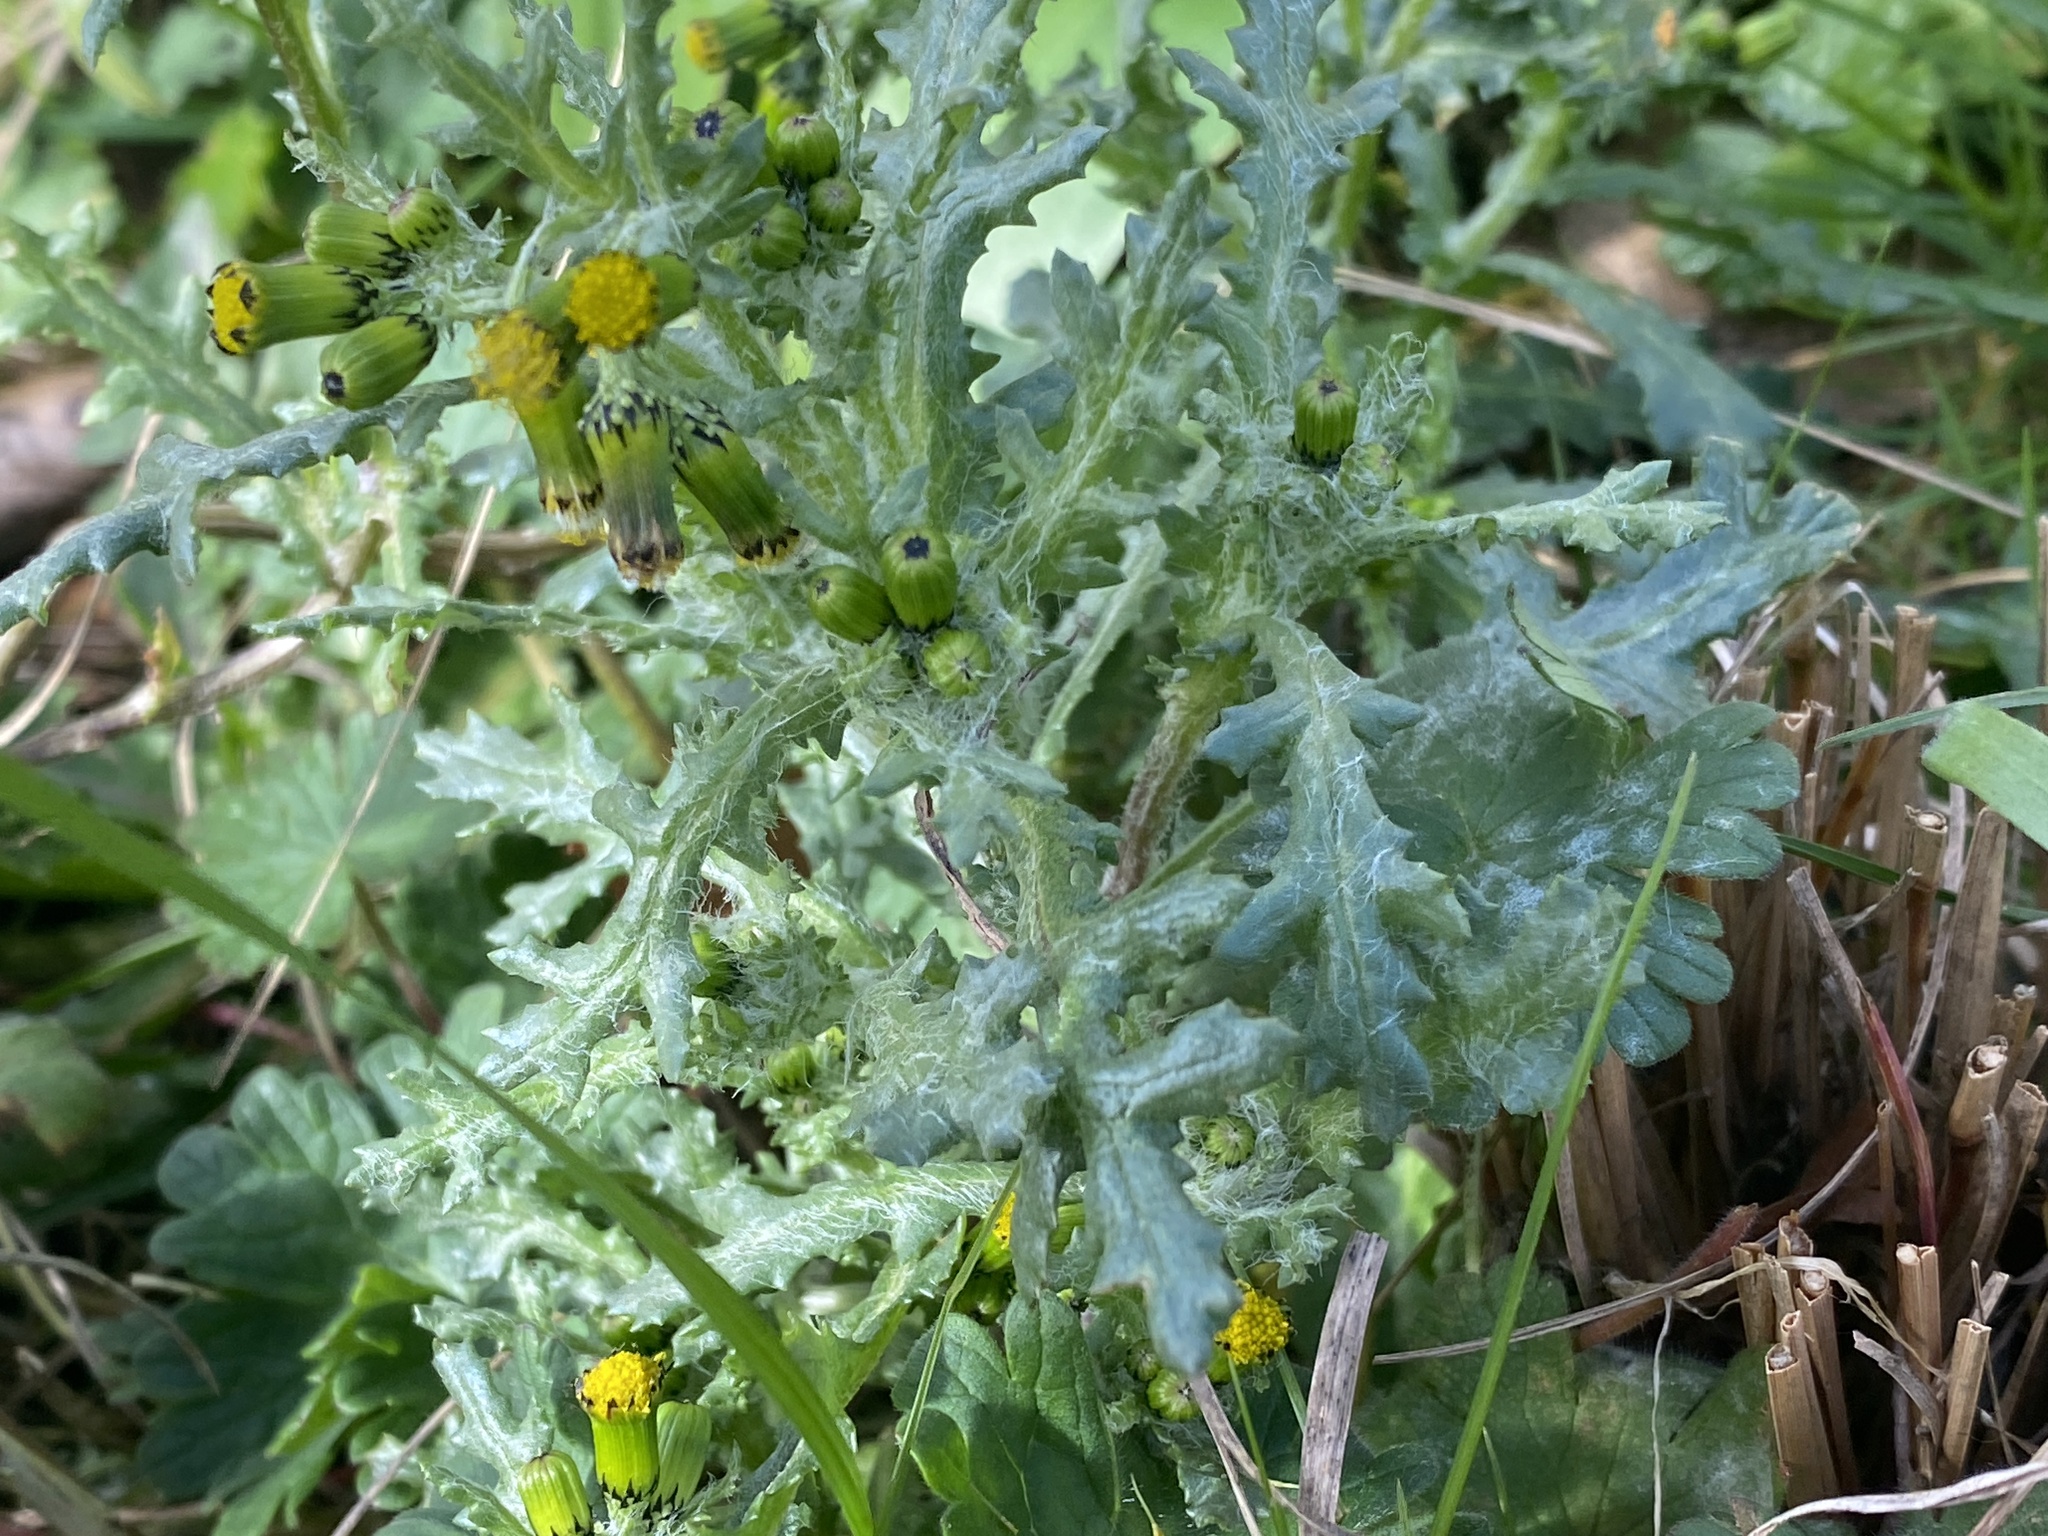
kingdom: Plantae
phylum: Tracheophyta
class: Magnoliopsida
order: Asterales
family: Asteraceae
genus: Senecio
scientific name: Senecio vulgaris
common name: Old-man-in-the-spring
